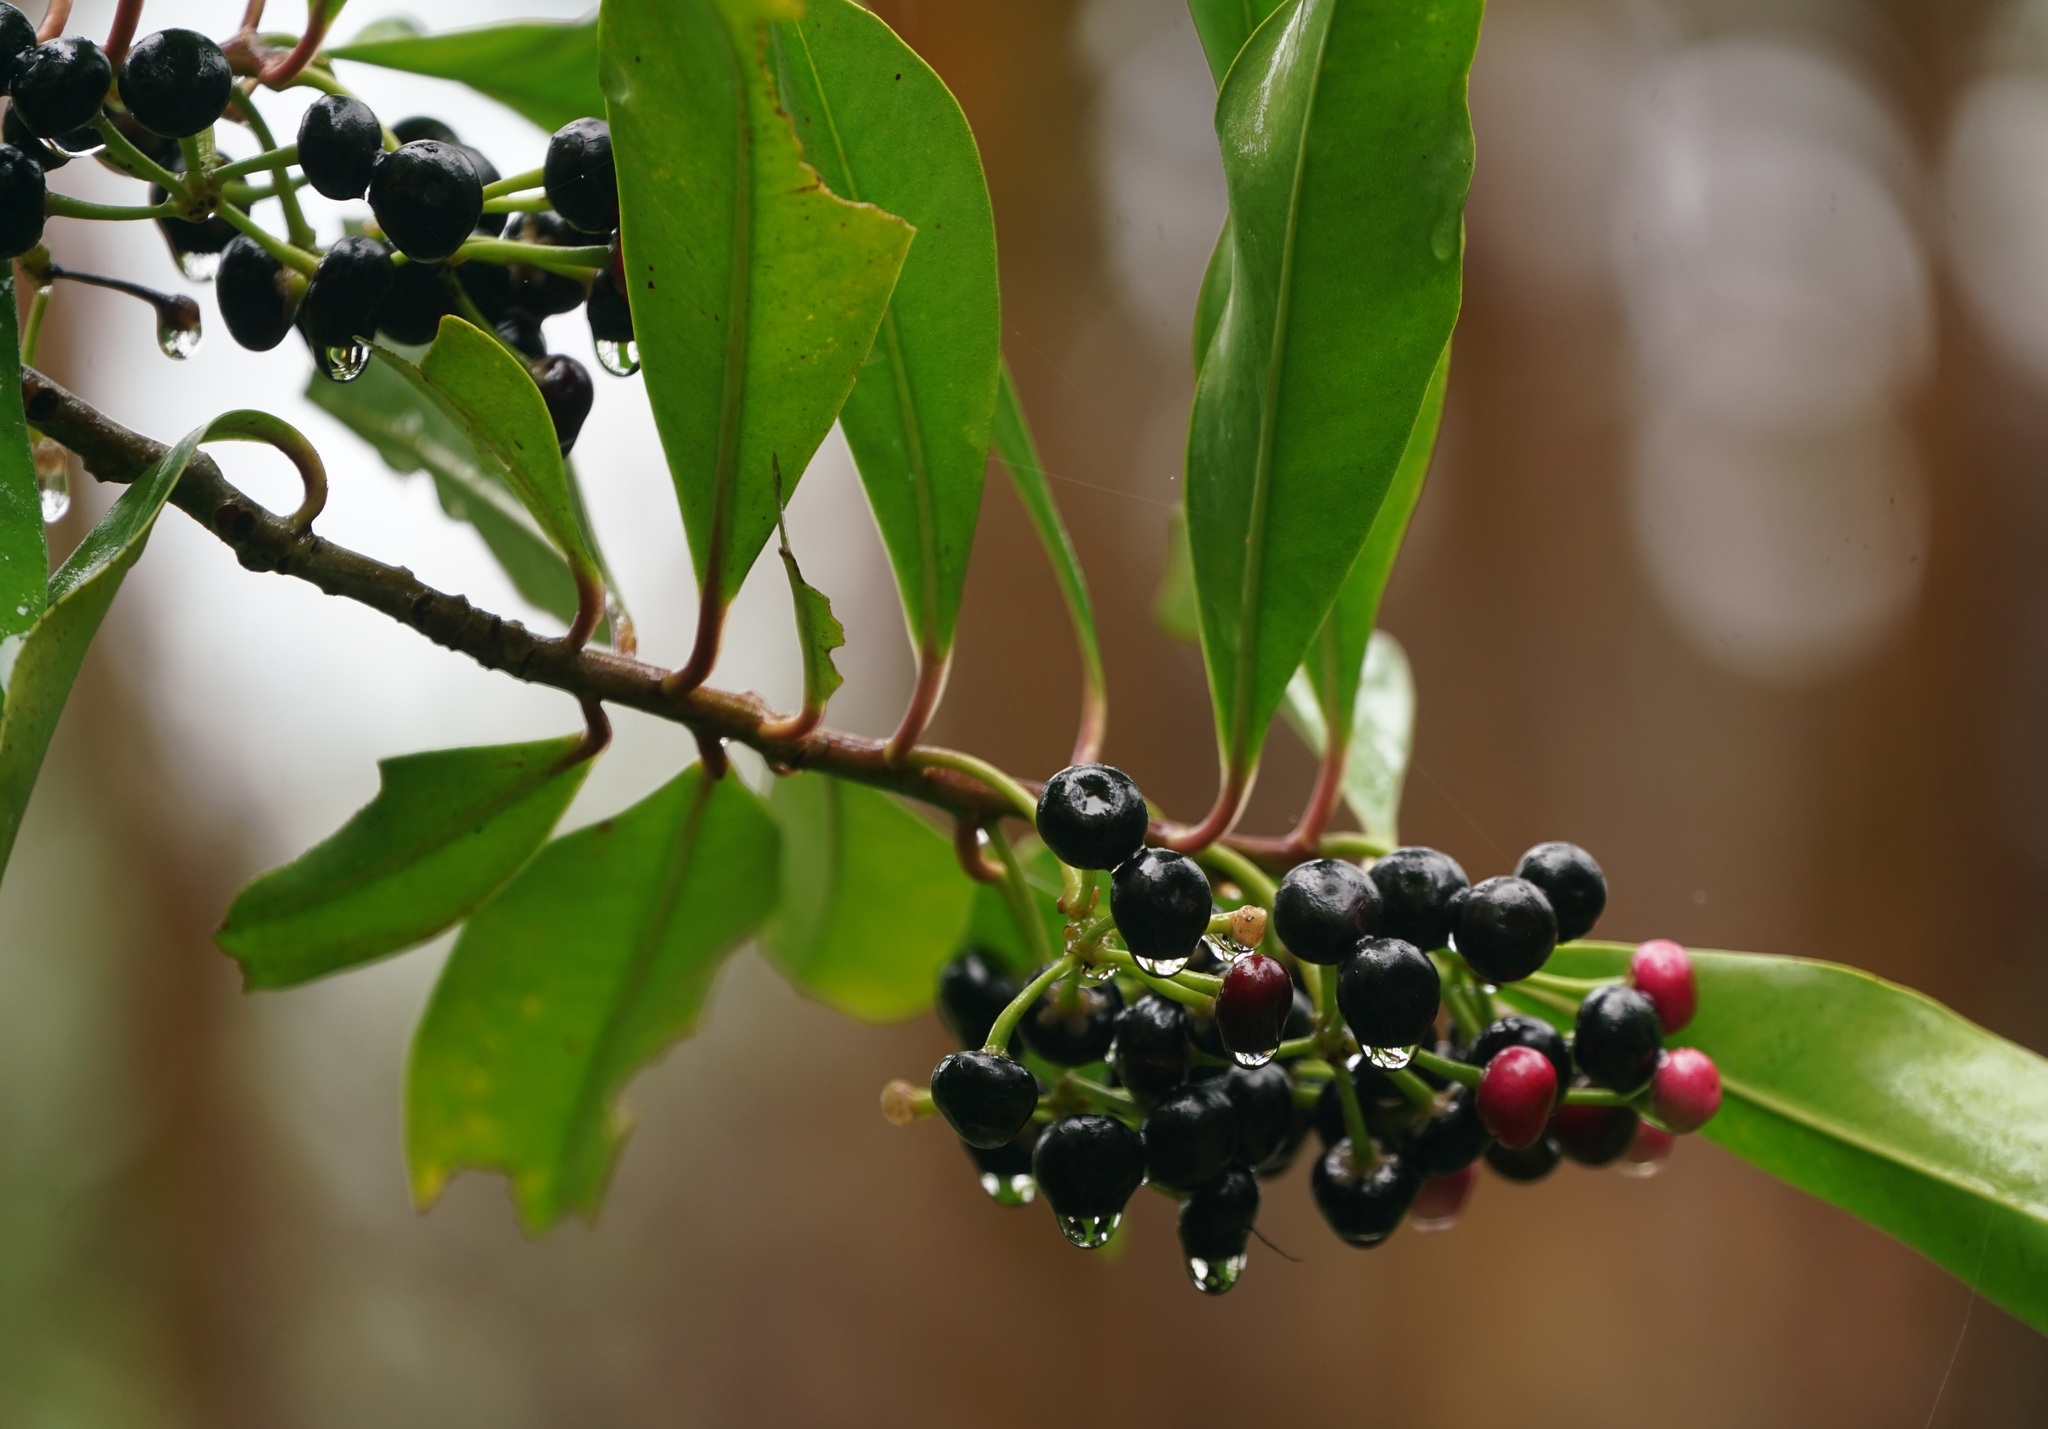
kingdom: Plantae
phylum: Tracheophyta
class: Magnoliopsida
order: Ericales
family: Primulaceae
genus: Ardisia
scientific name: Ardisia elliptica
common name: Shoebutton
